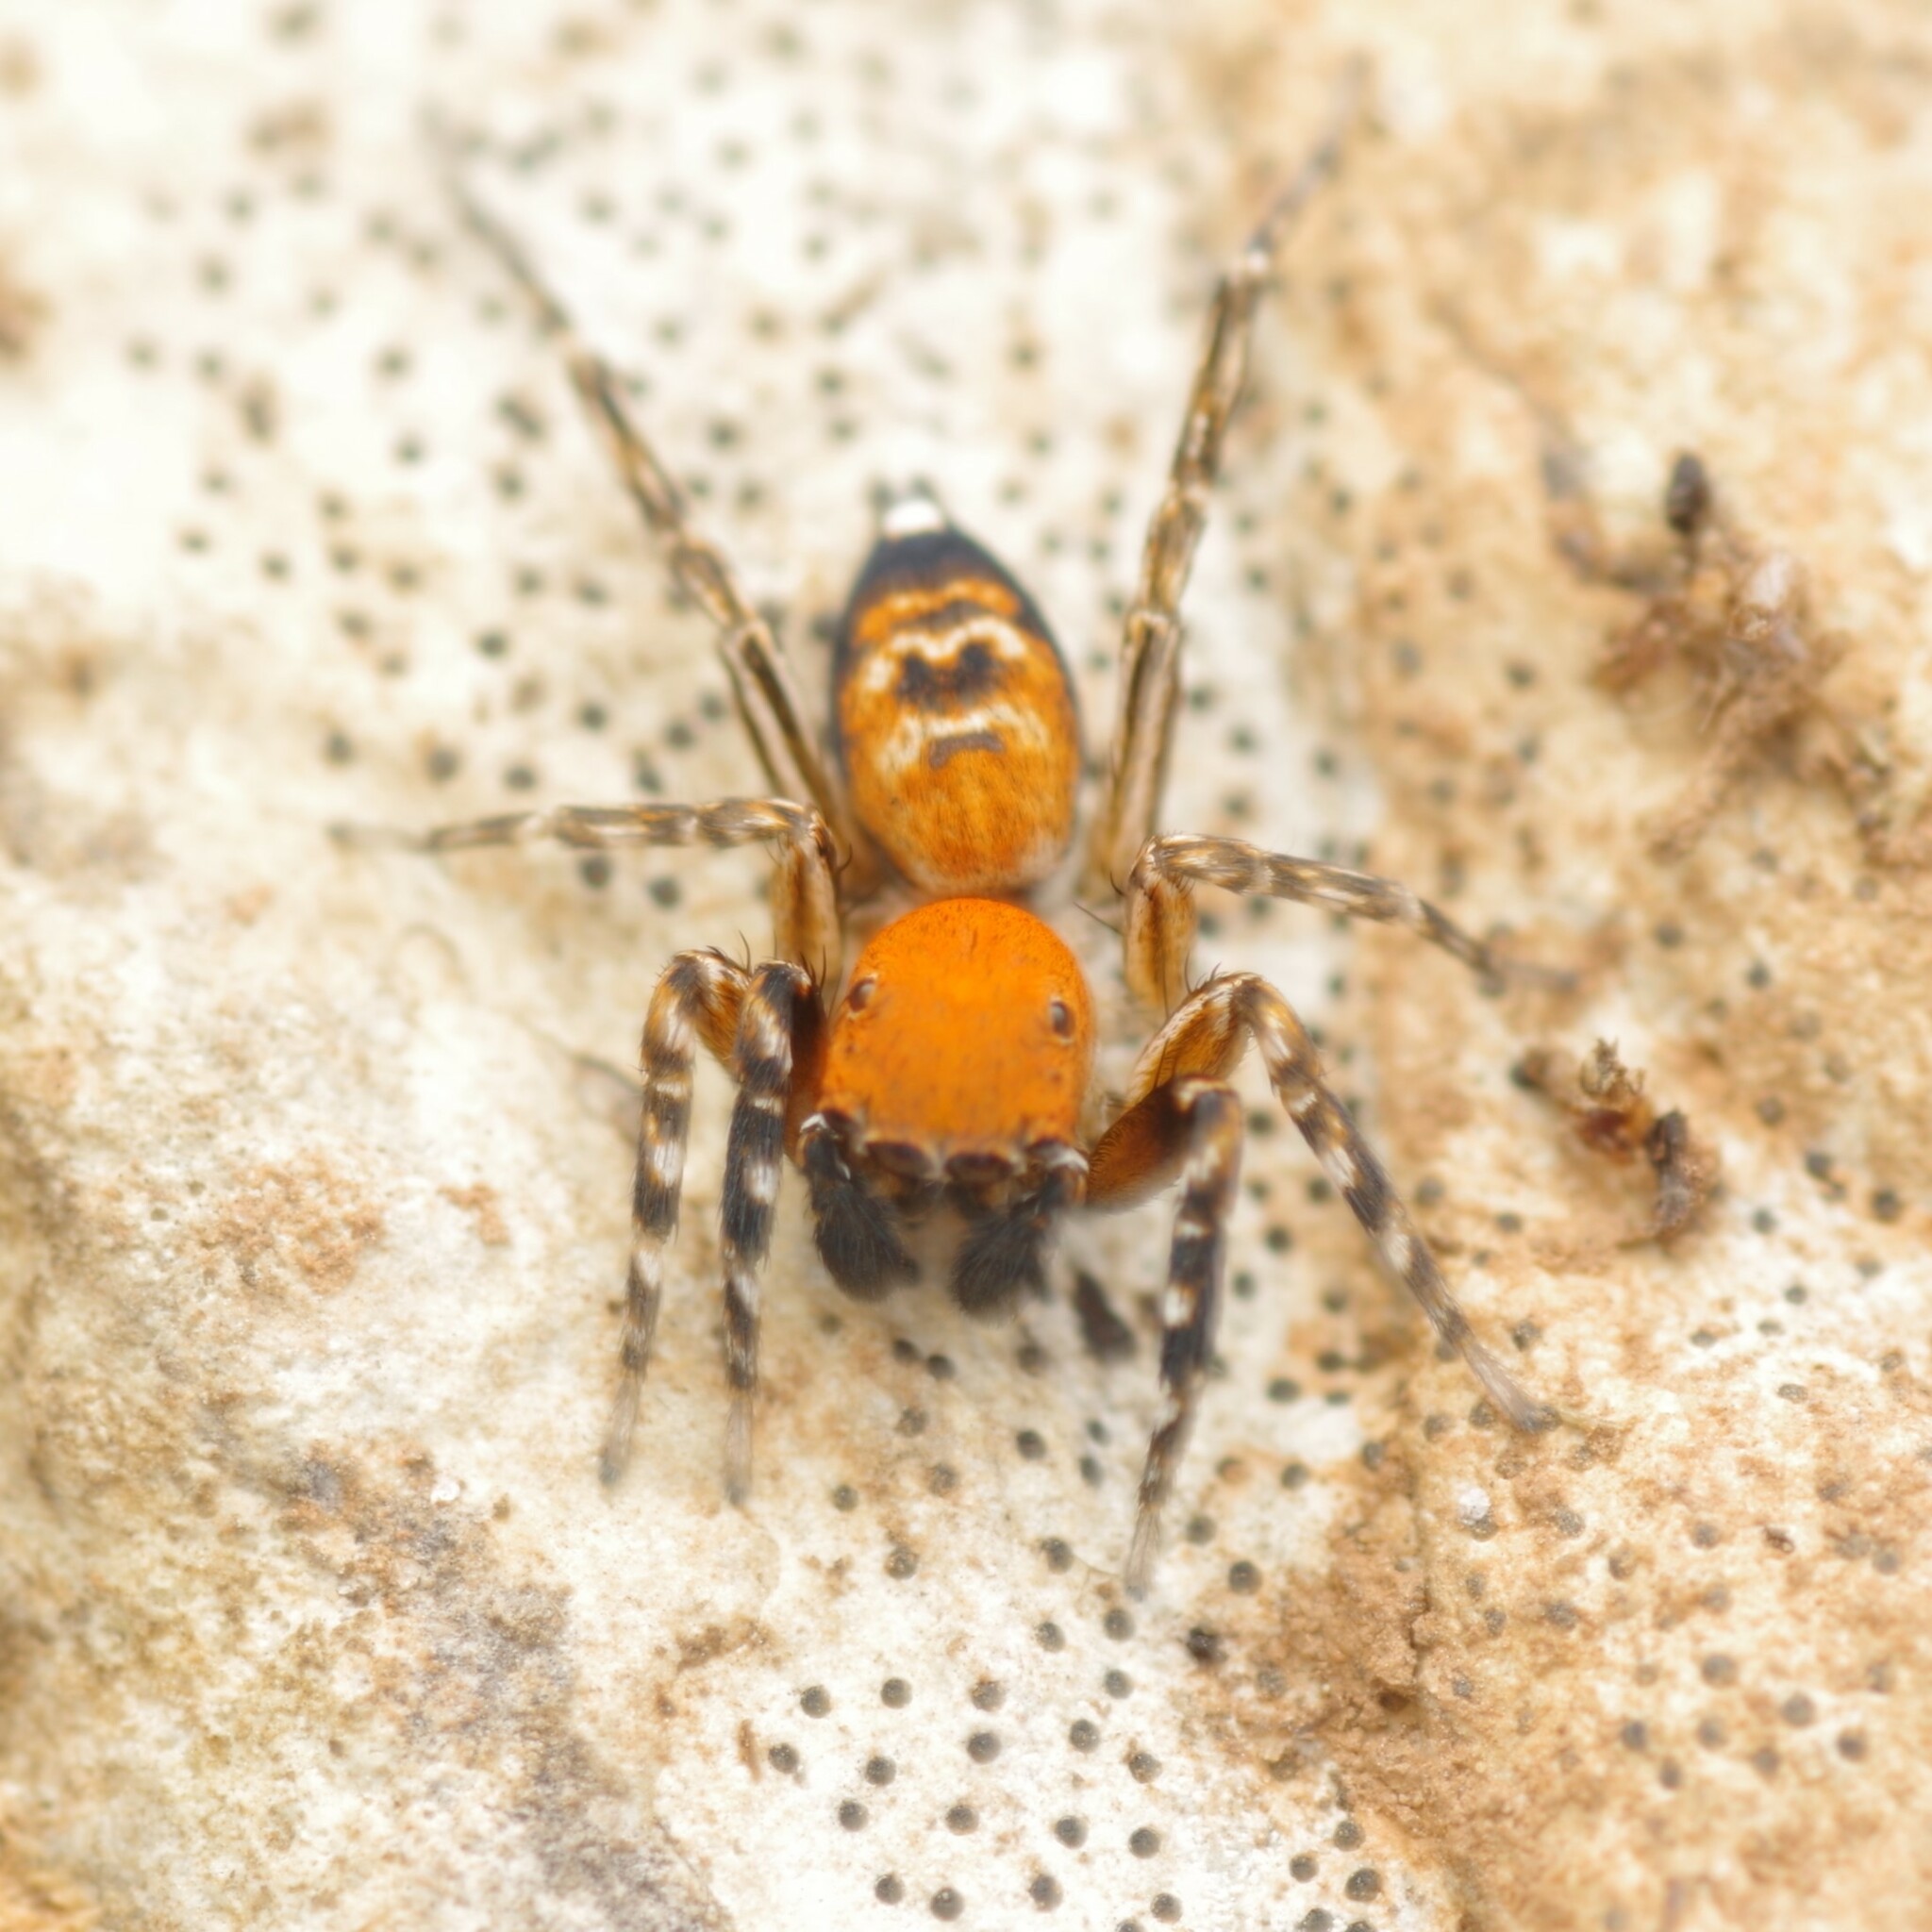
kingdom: Animalia
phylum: Arthropoda
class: Arachnida
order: Araneae
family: Salticidae
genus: Cyrba
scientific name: Cyrba algerina
